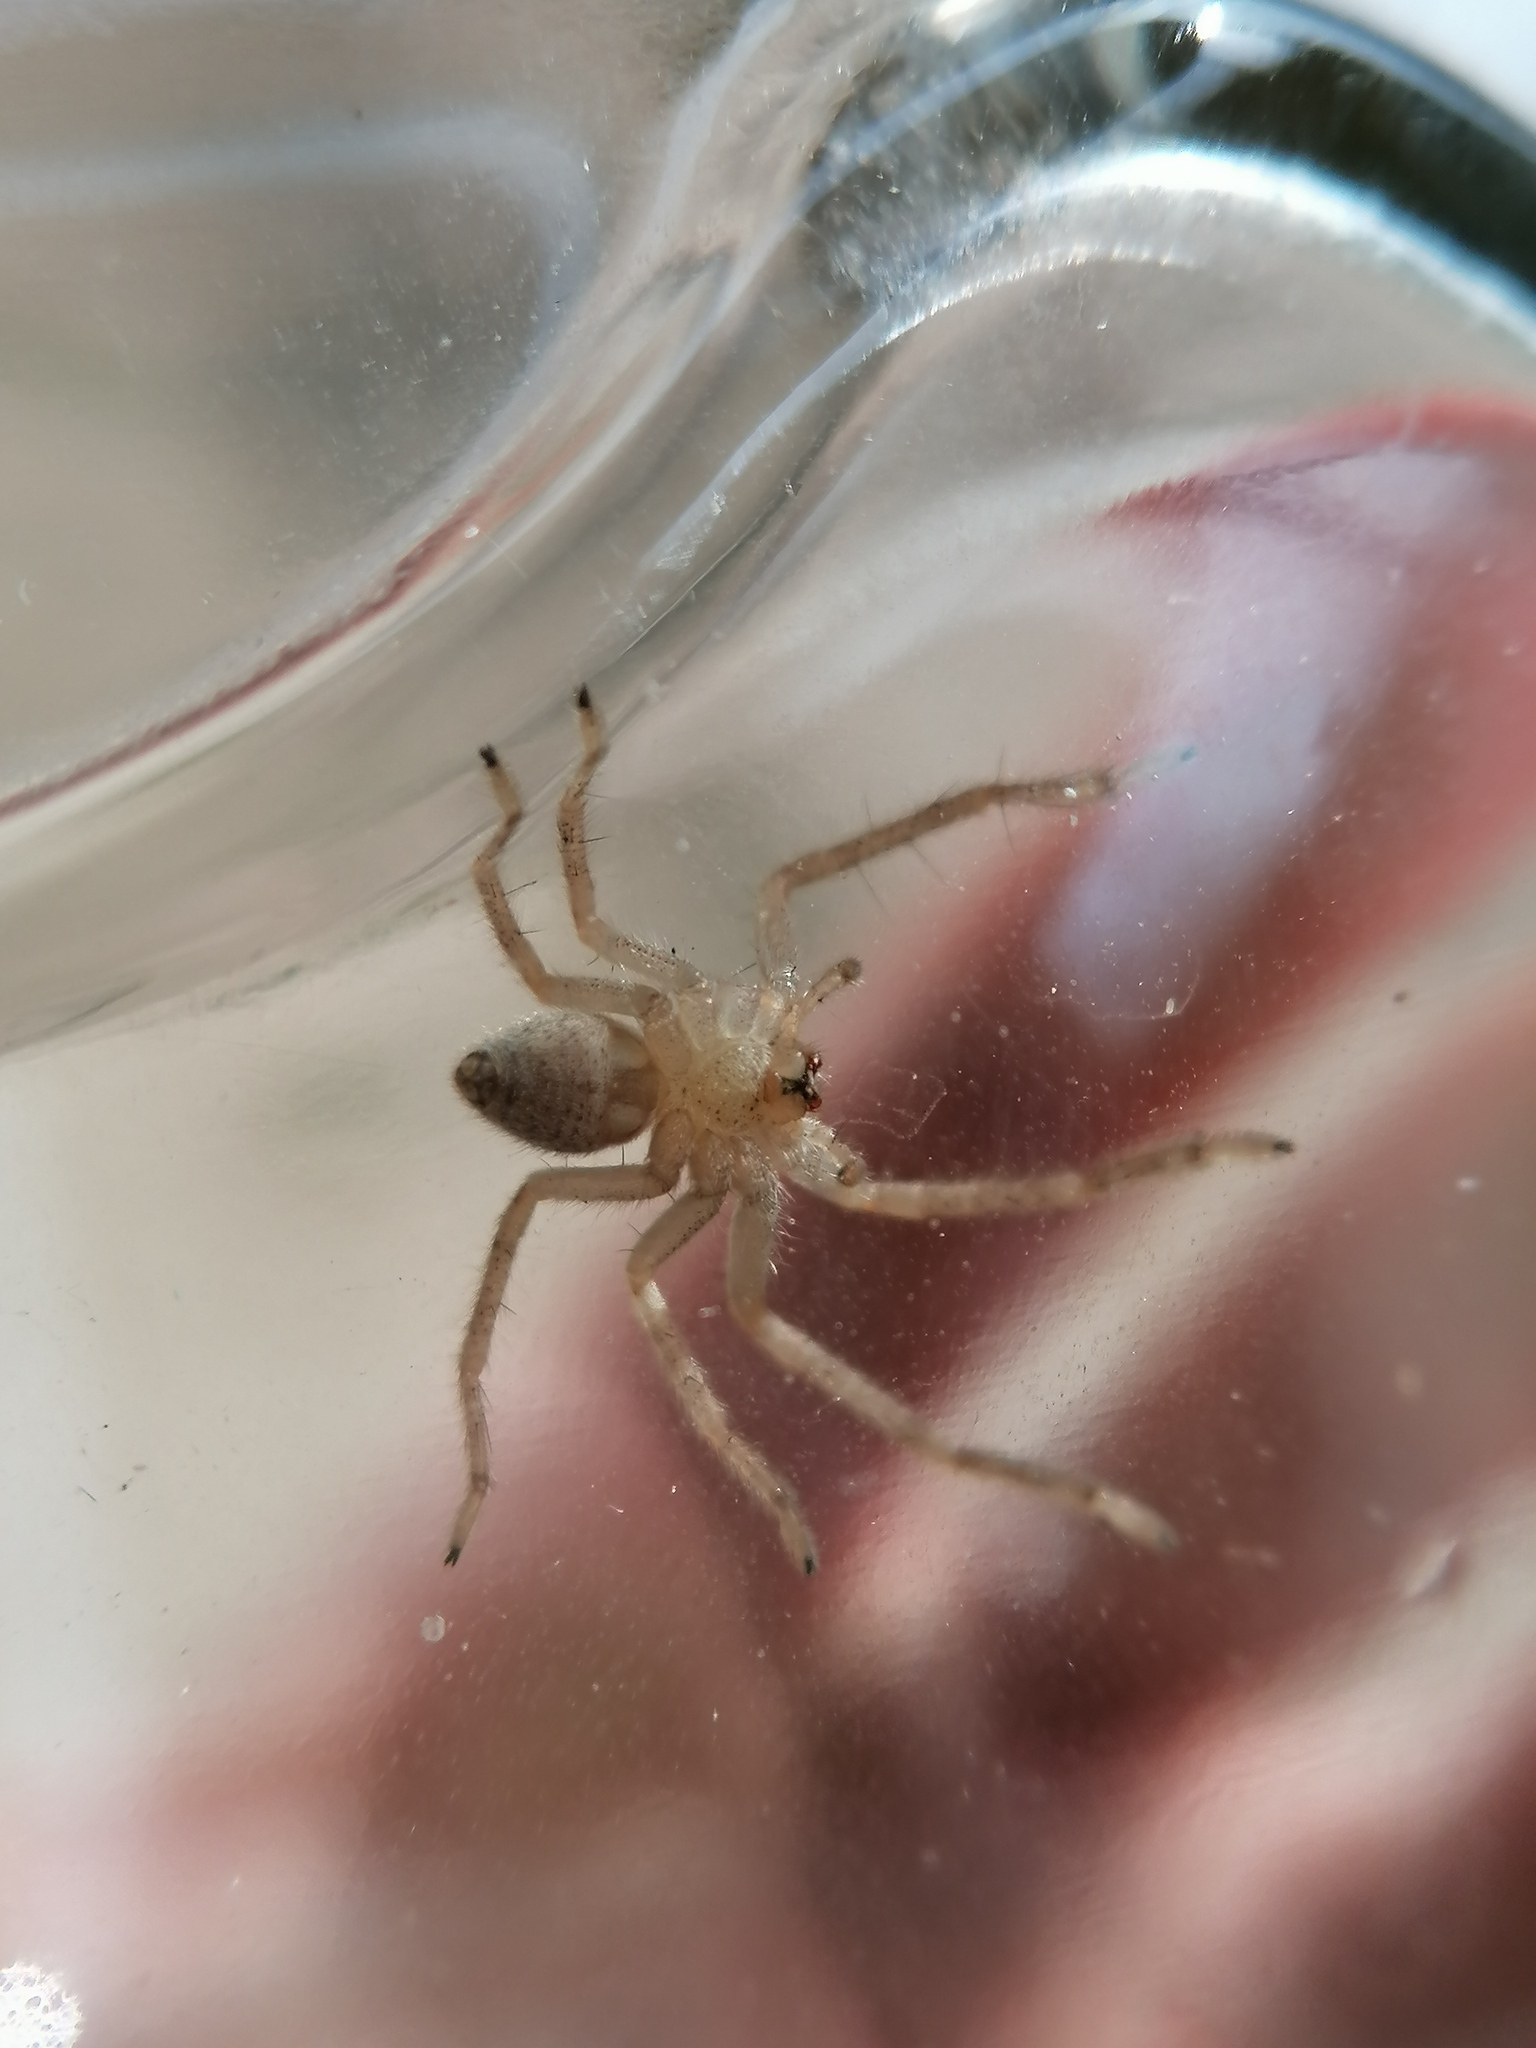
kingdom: Animalia
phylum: Arthropoda
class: Arachnida
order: Araneae
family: Sparassidae
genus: Olios
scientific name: Olios sericeus
